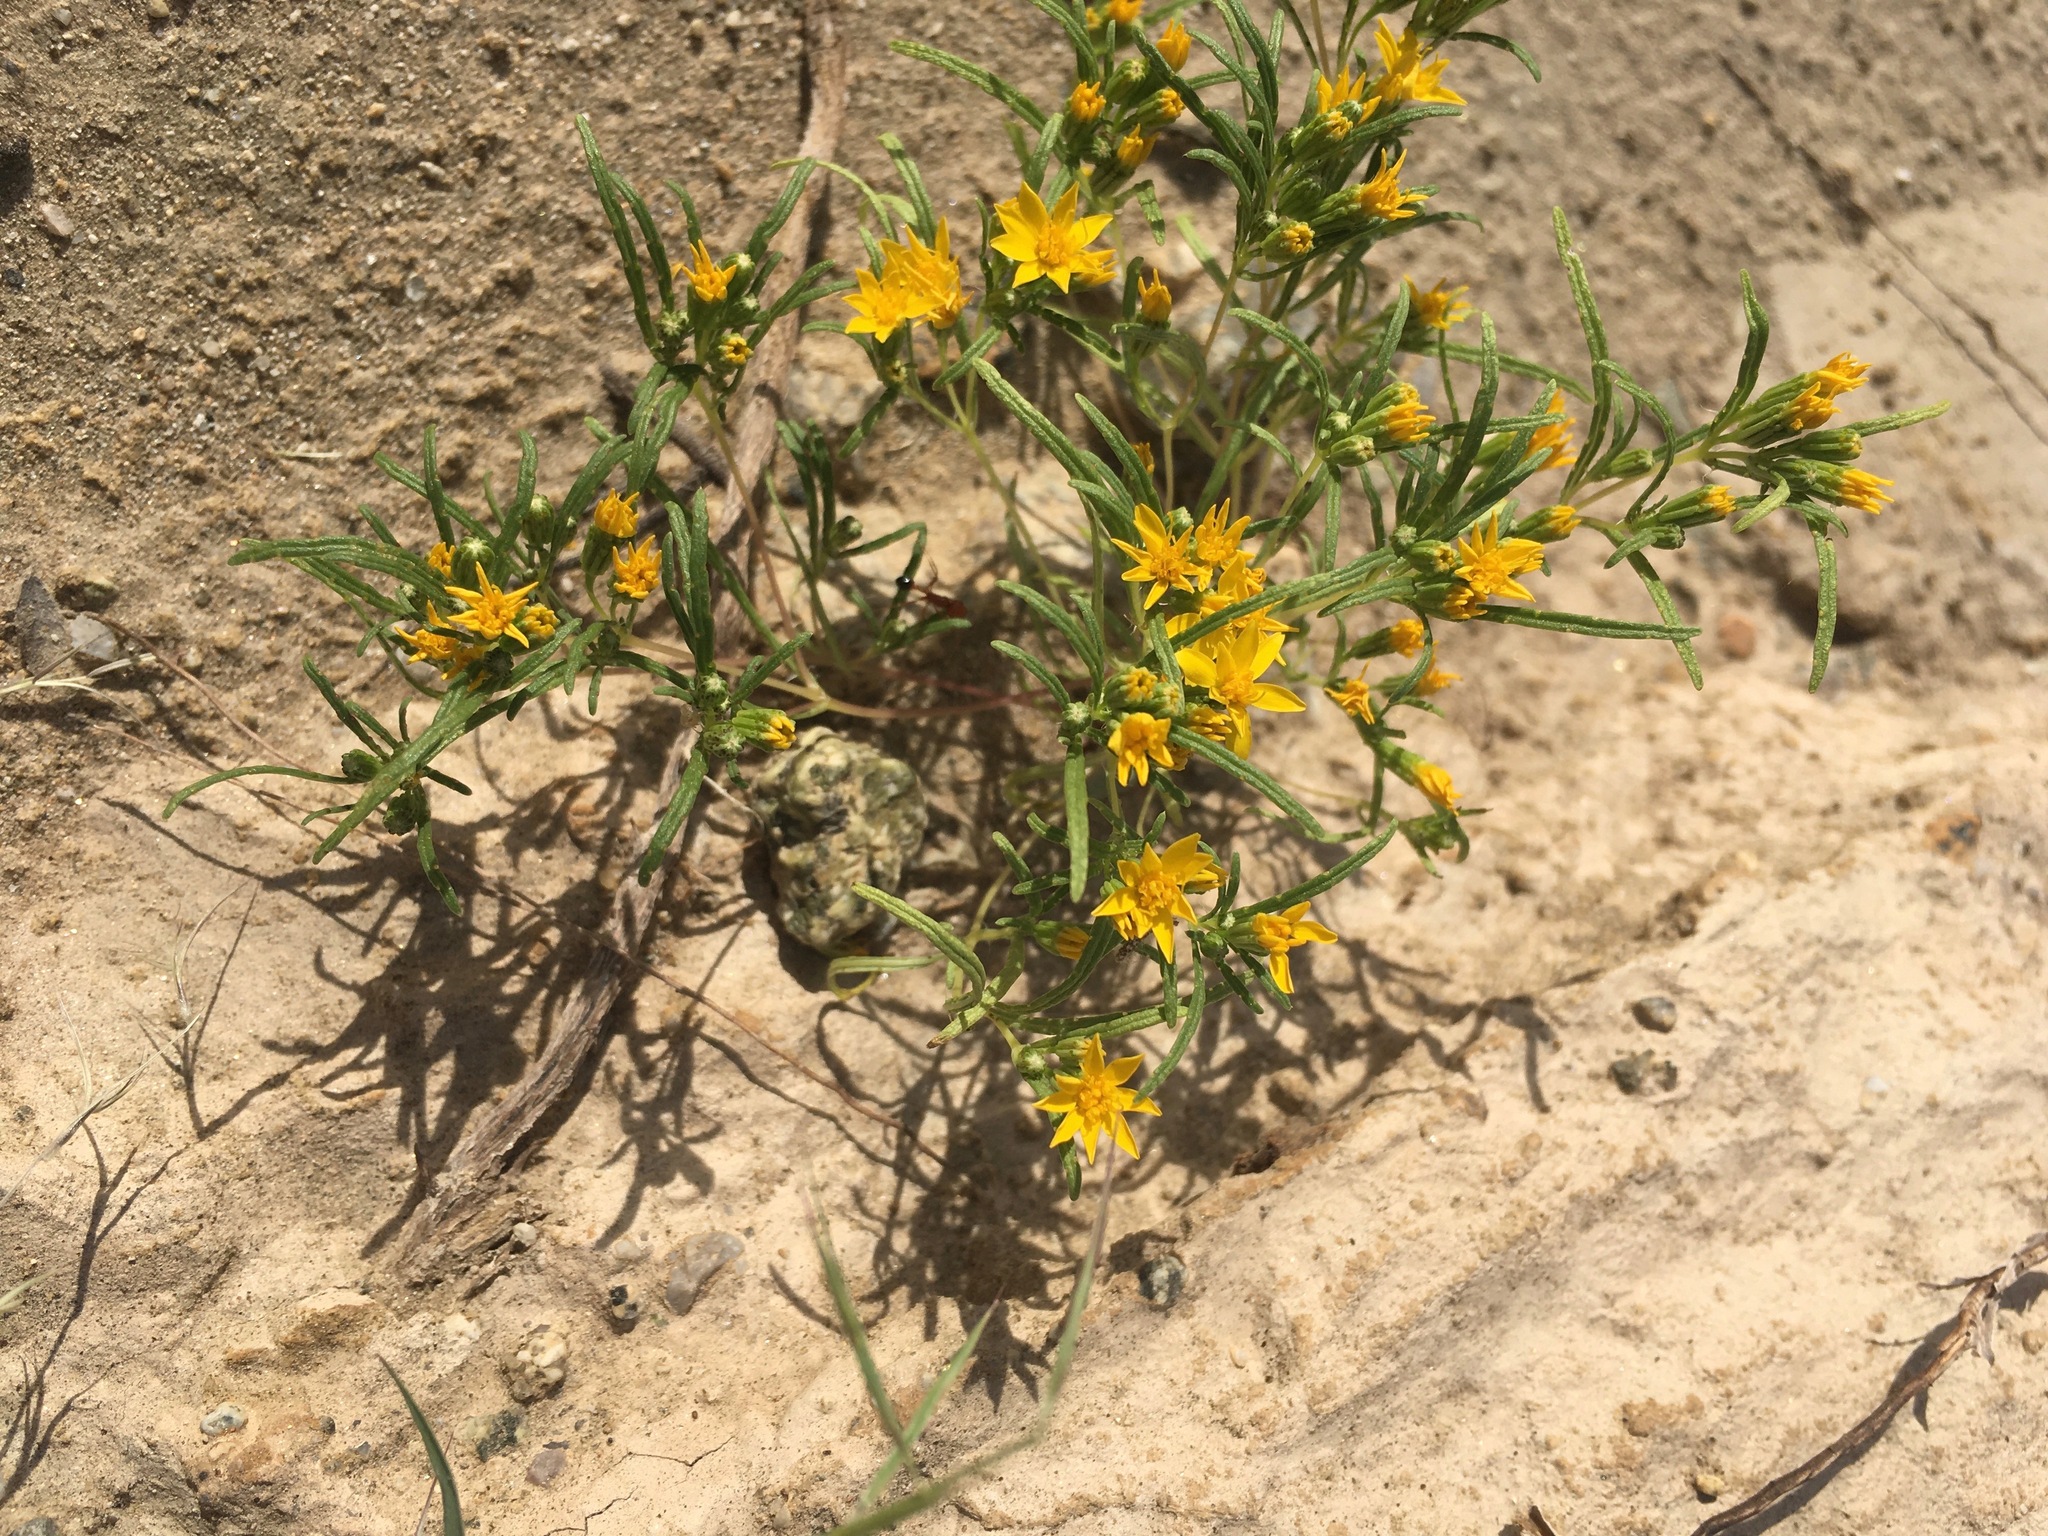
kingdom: Plantae
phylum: Tracheophyta
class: Magnoliopsida
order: Asterales
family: Asteraceae
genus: Pectis
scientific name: Pectis papposa
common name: Many-bristle chinchweed
